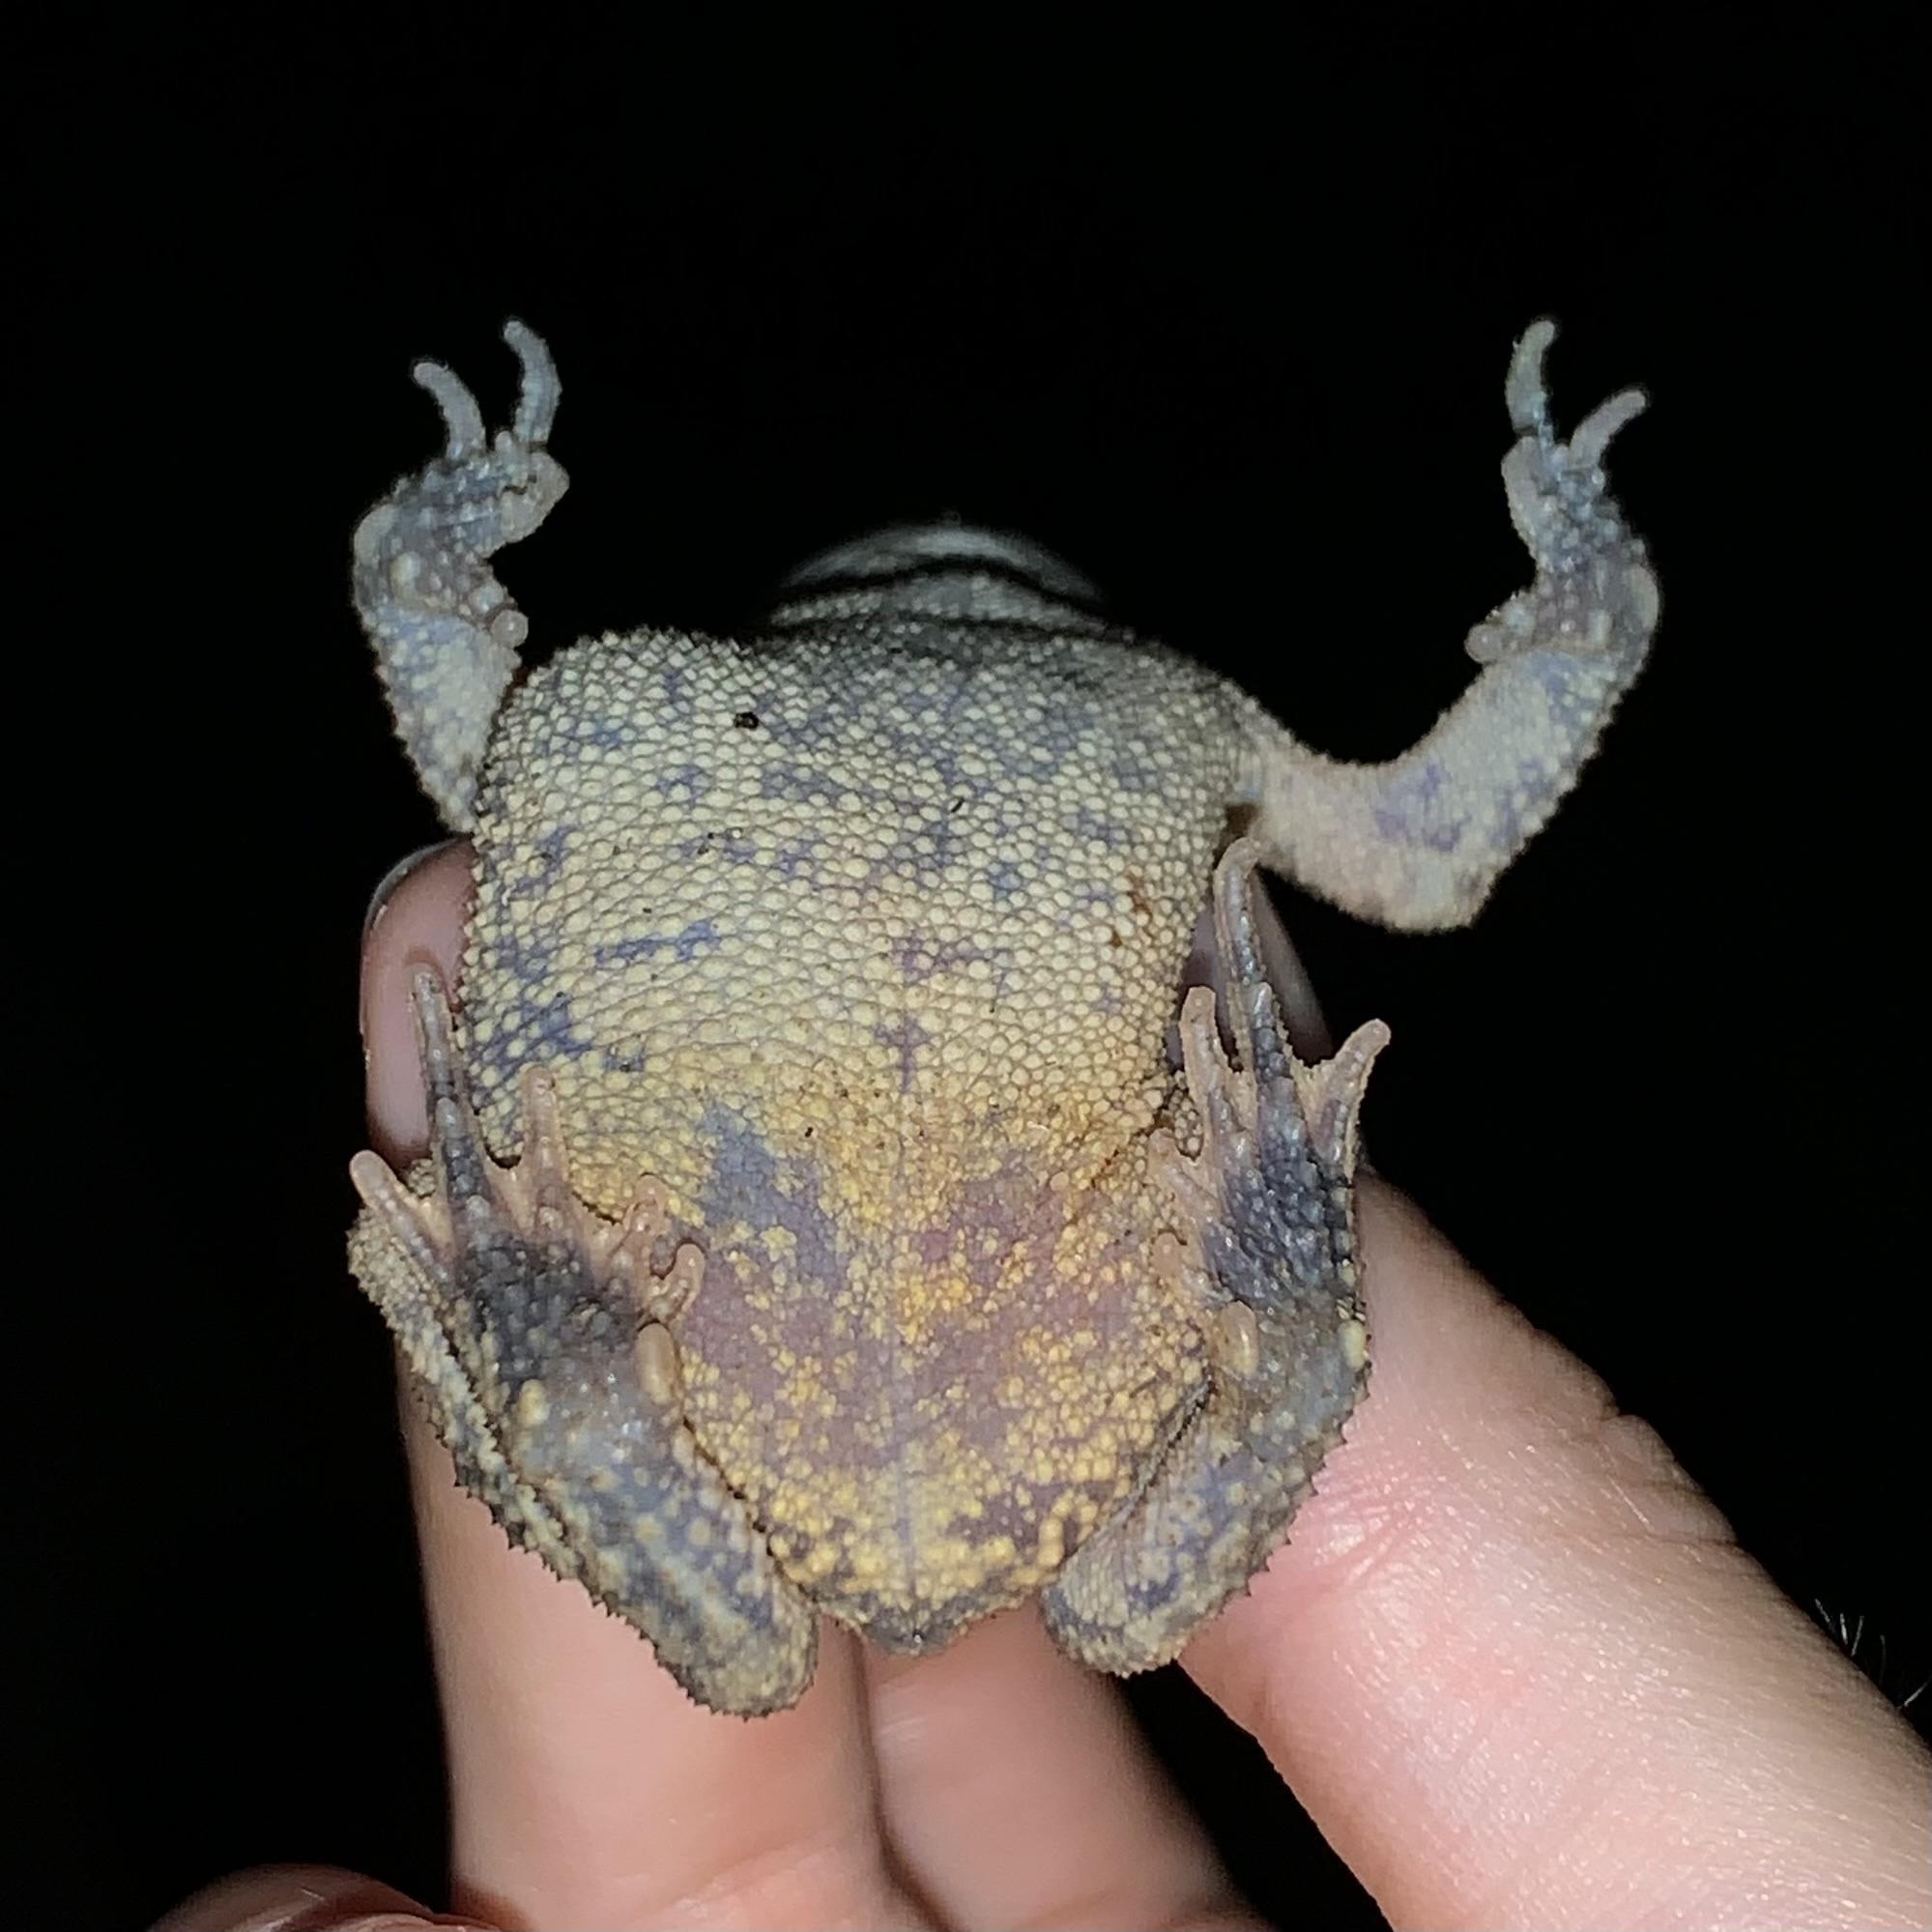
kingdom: Animalia
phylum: Chordata
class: Amphibia
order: Anura
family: Bufonidae
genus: Incilius
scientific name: Incilius nebulifer
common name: Gulf coast toad
